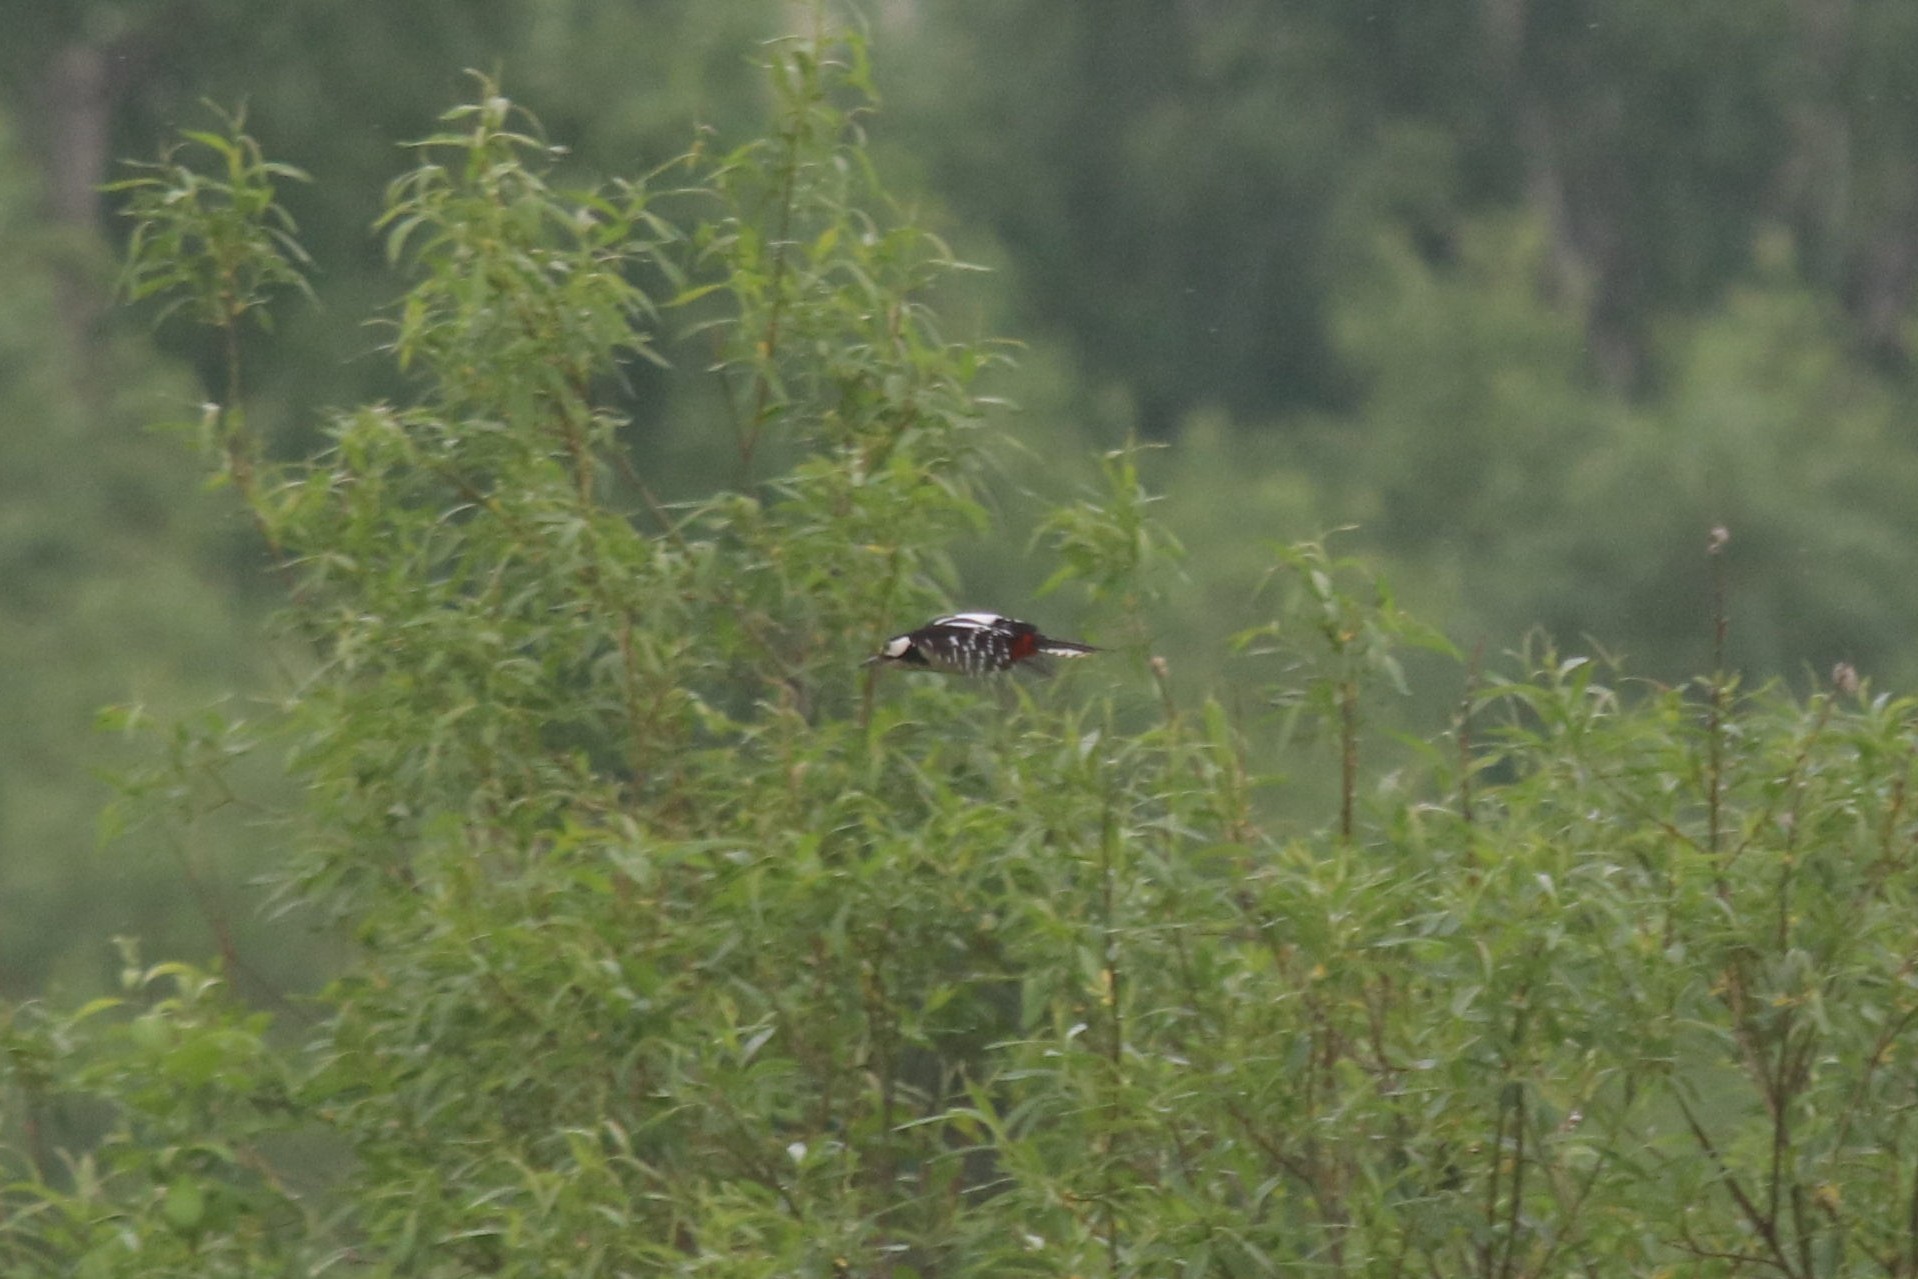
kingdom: Animalia
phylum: Chordata
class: Aves
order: Piciformes
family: Picidae
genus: Dendrocopos
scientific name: Dendrocopos major
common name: Great spotted woodpecker
